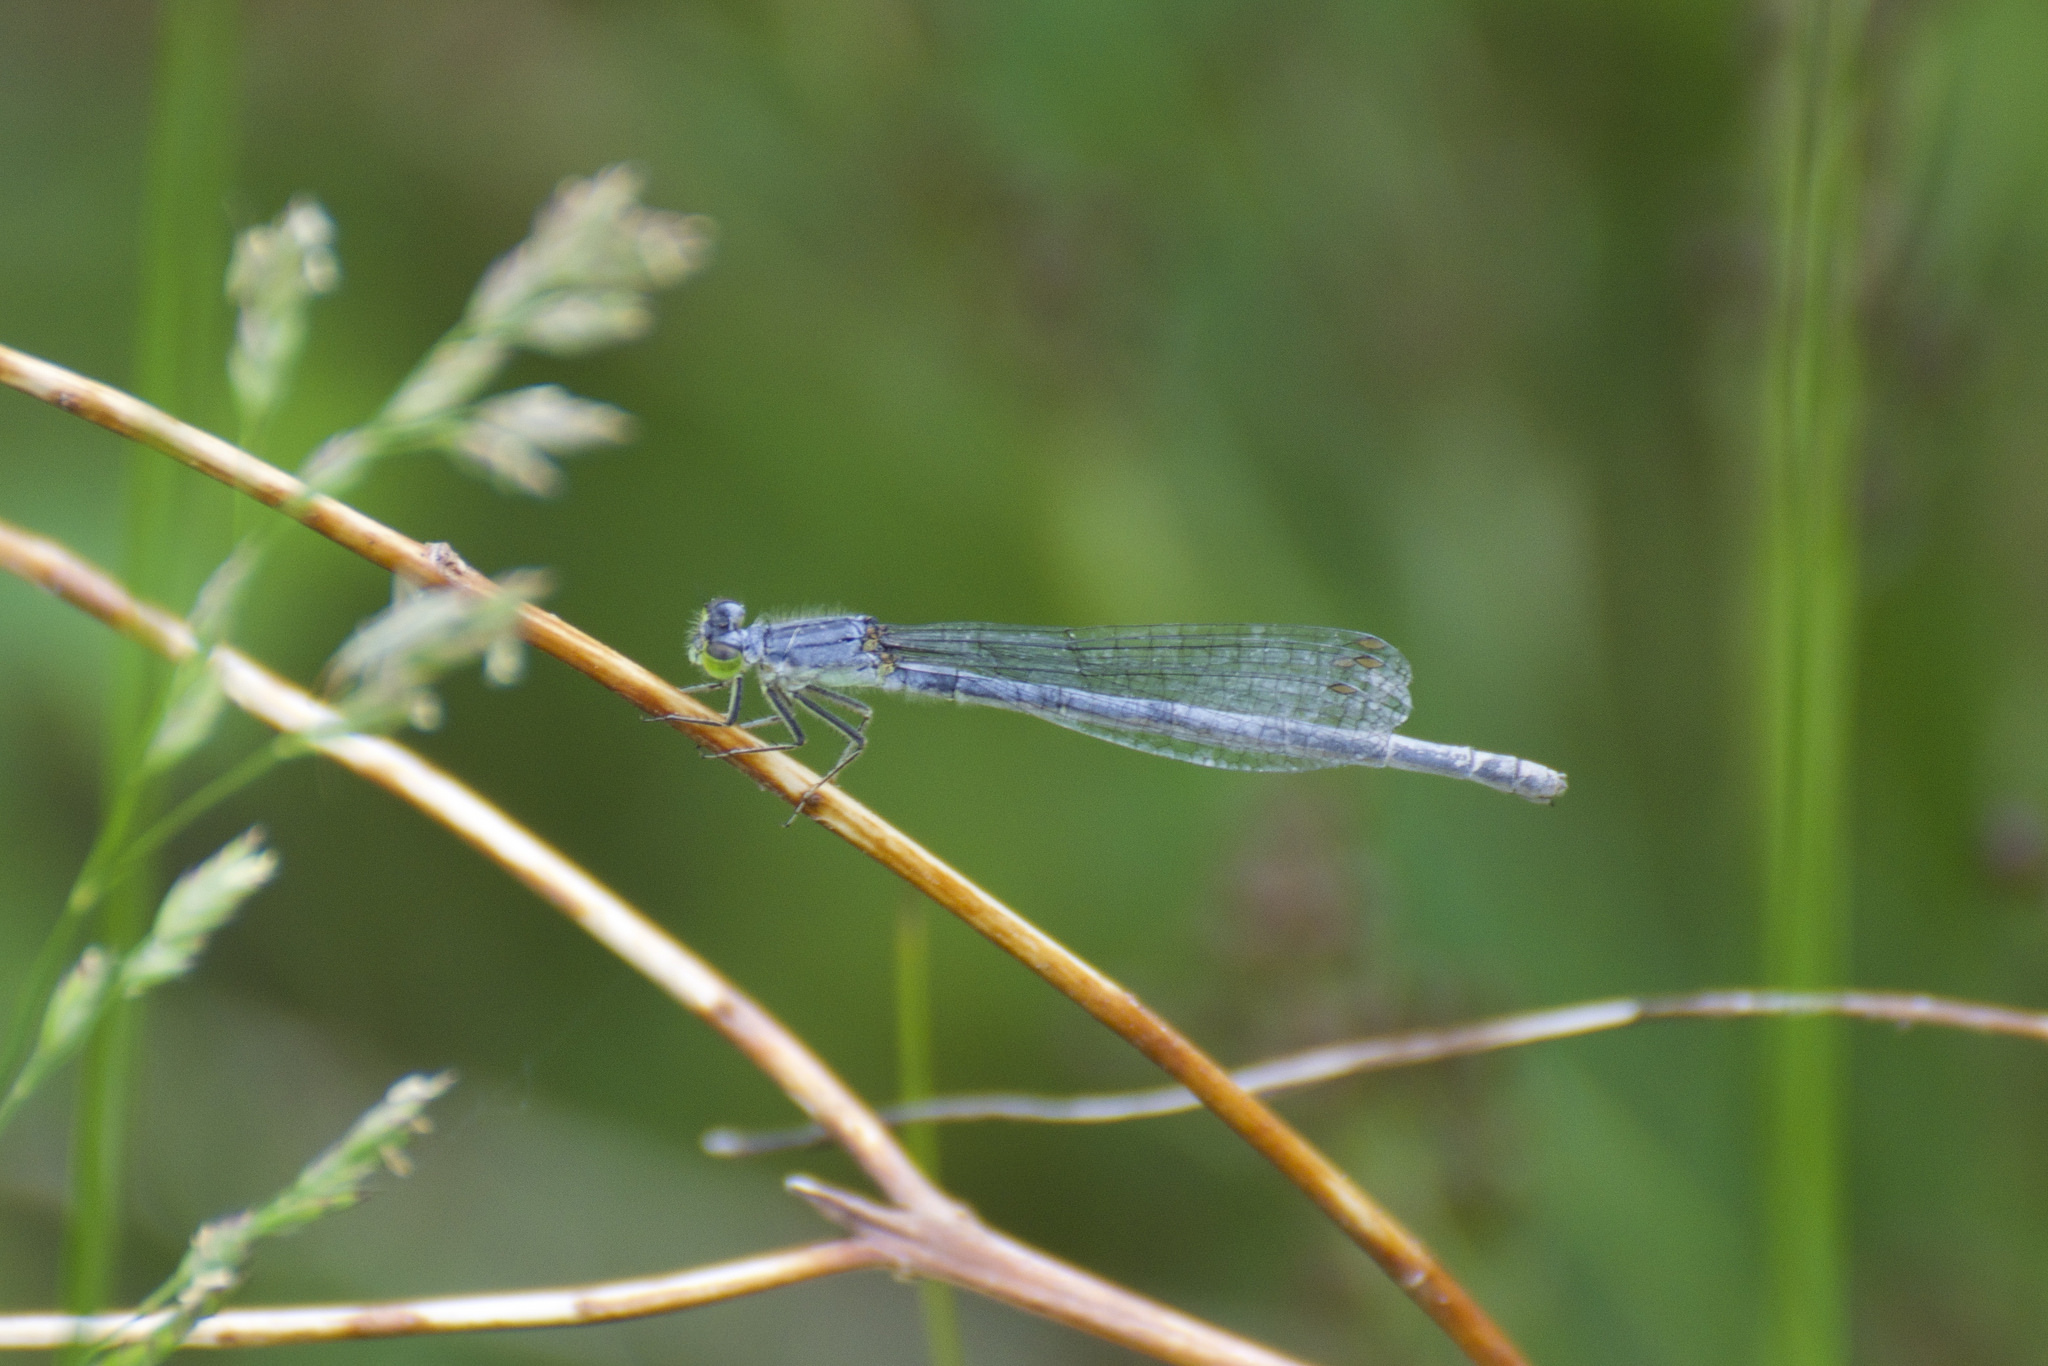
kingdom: Animalia
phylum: Arthropoda
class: Insecta
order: Odonata
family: Coenagrionidae
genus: Ischnura
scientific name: Ischnura verticalis
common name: Eastern forktail
